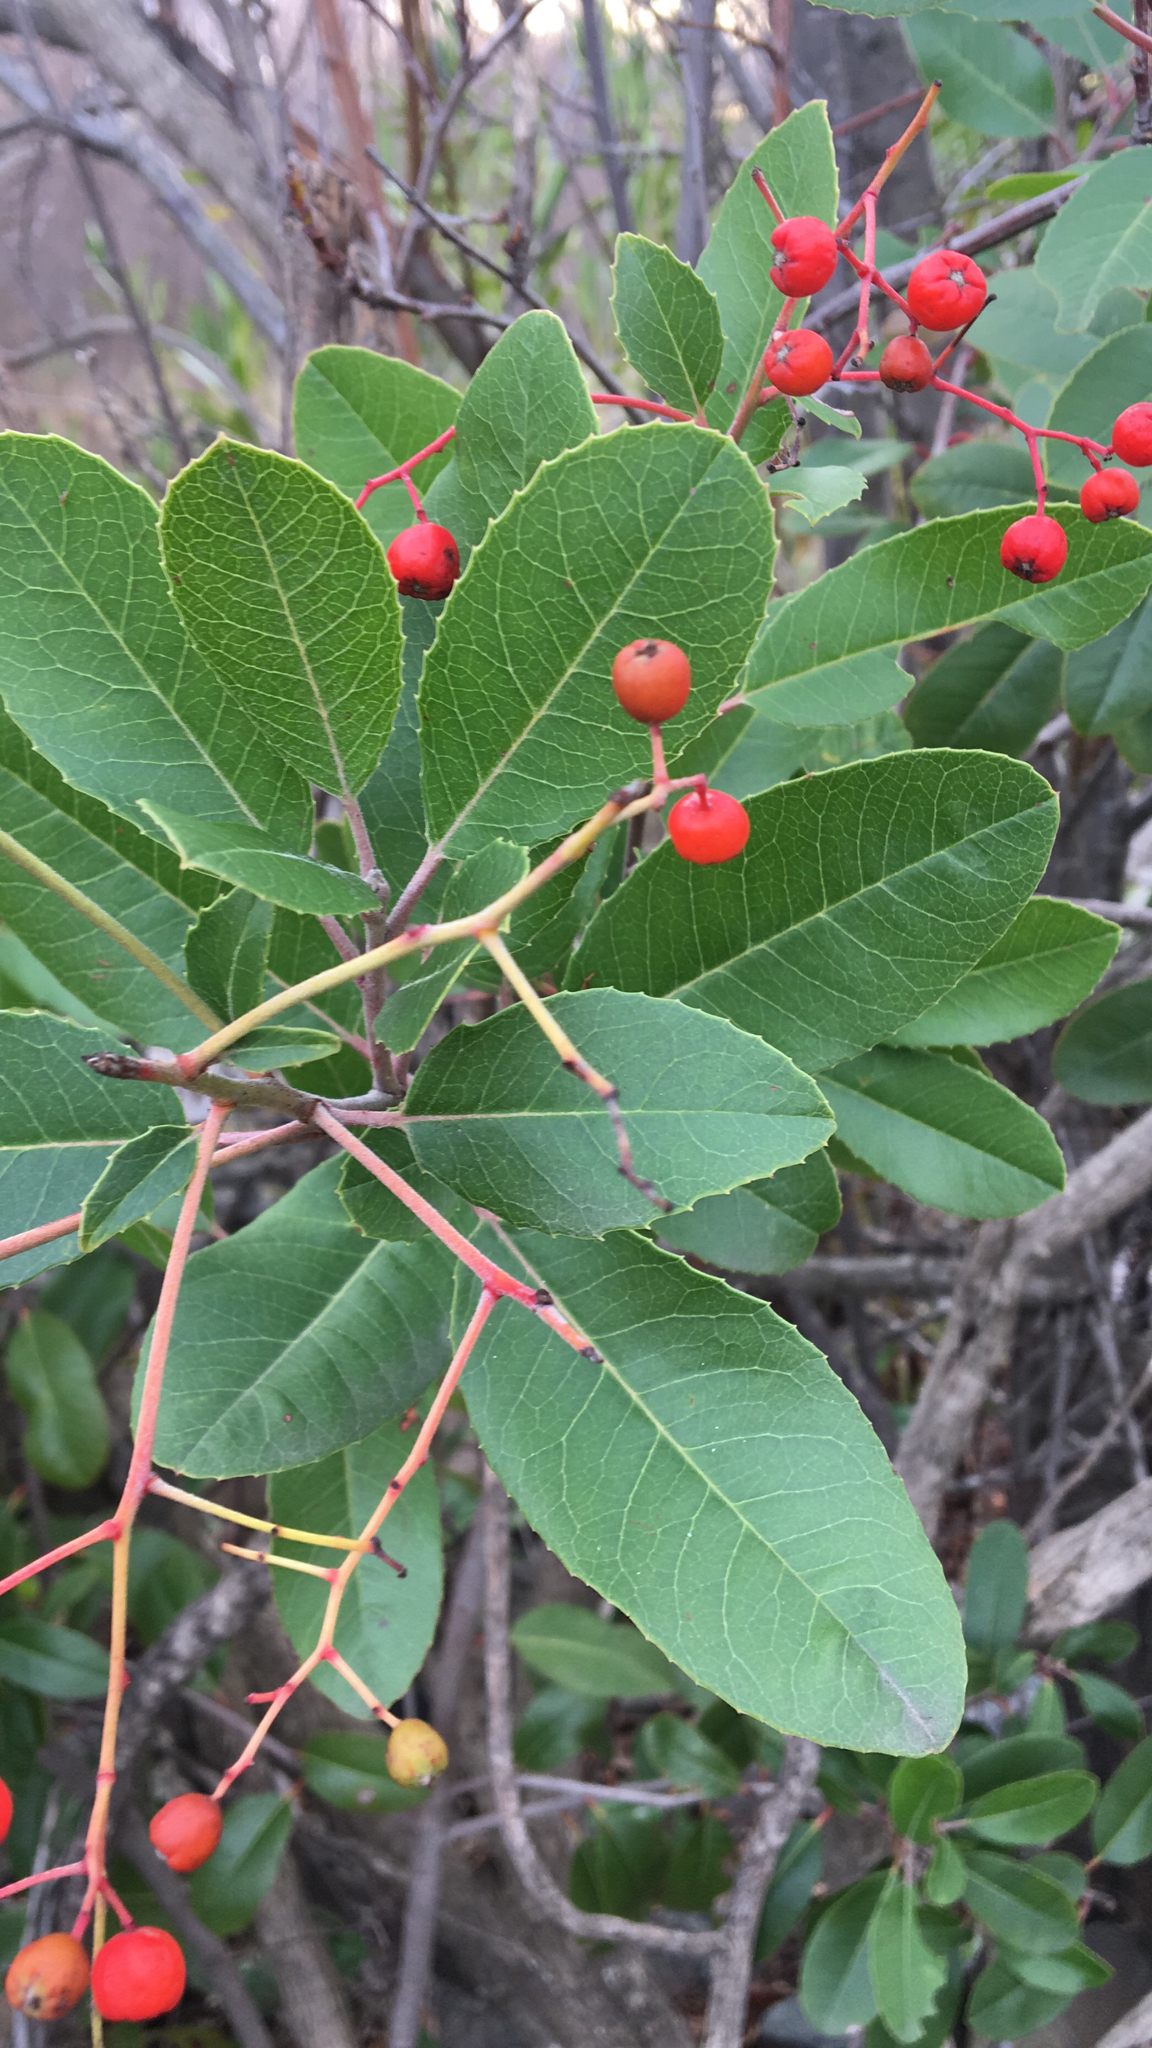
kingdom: Plantae
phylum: Tracheophyta
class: Magnoliopsida
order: Rosales
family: Rosaceae
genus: Heteromeles
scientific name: Heteromeles arbutifolia
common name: California-holly
